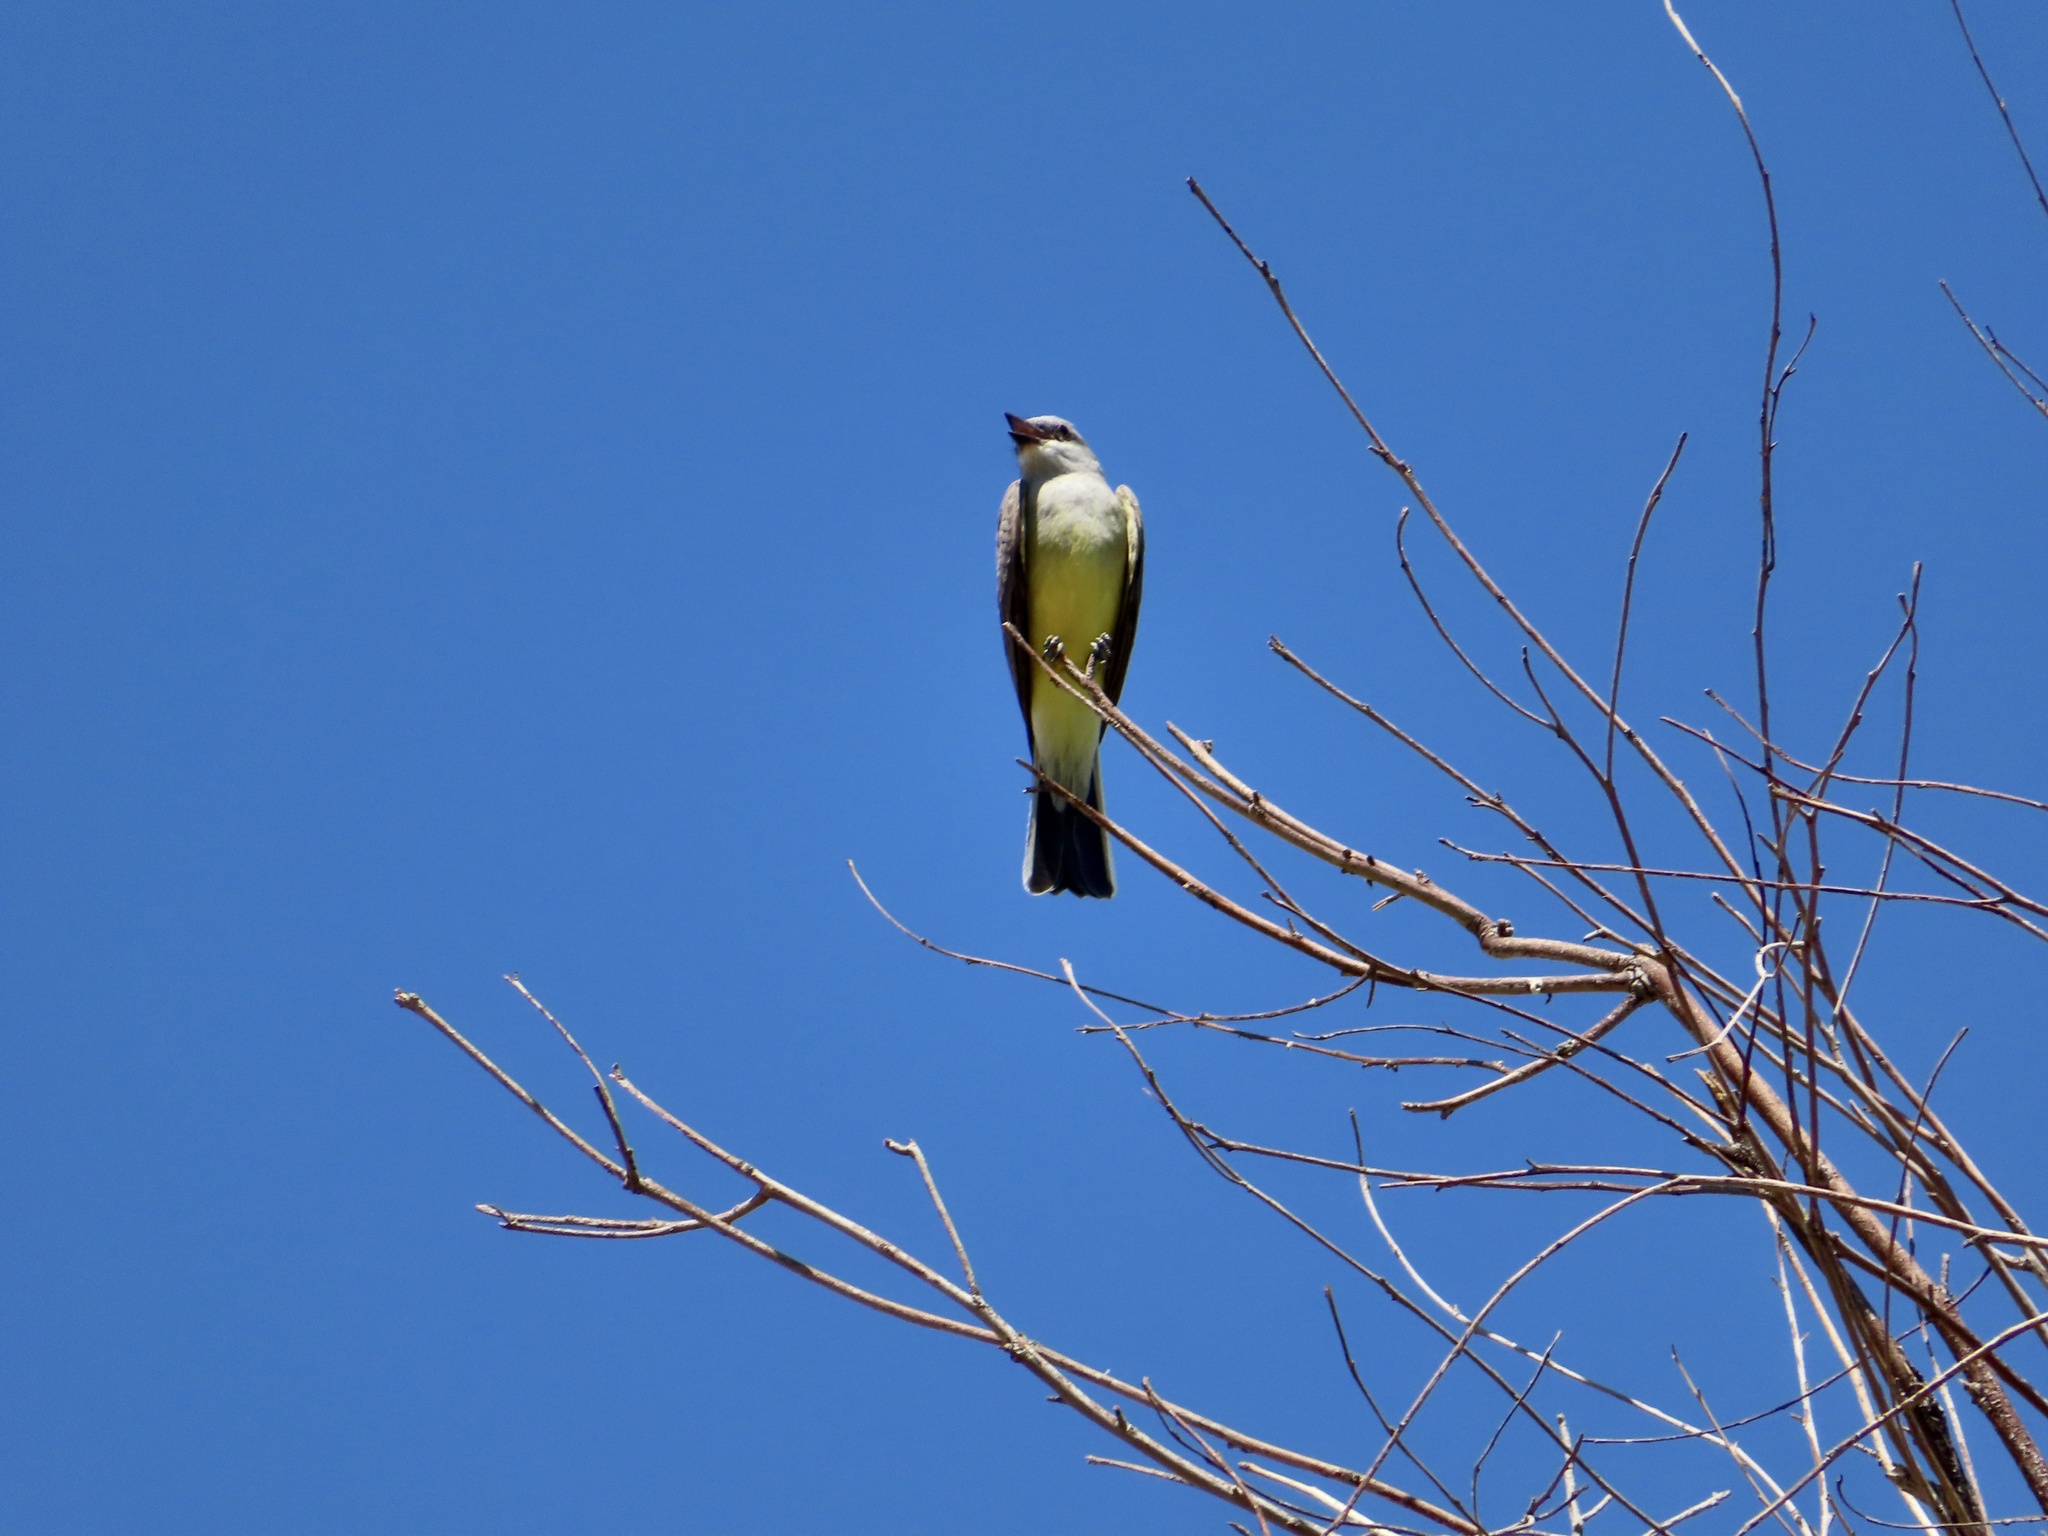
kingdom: Animalia
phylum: Chordata
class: Aves
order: Passeriformes
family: Tyrannidae
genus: Tyrannus
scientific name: Tyrannus verticalis
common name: Western kingbird
